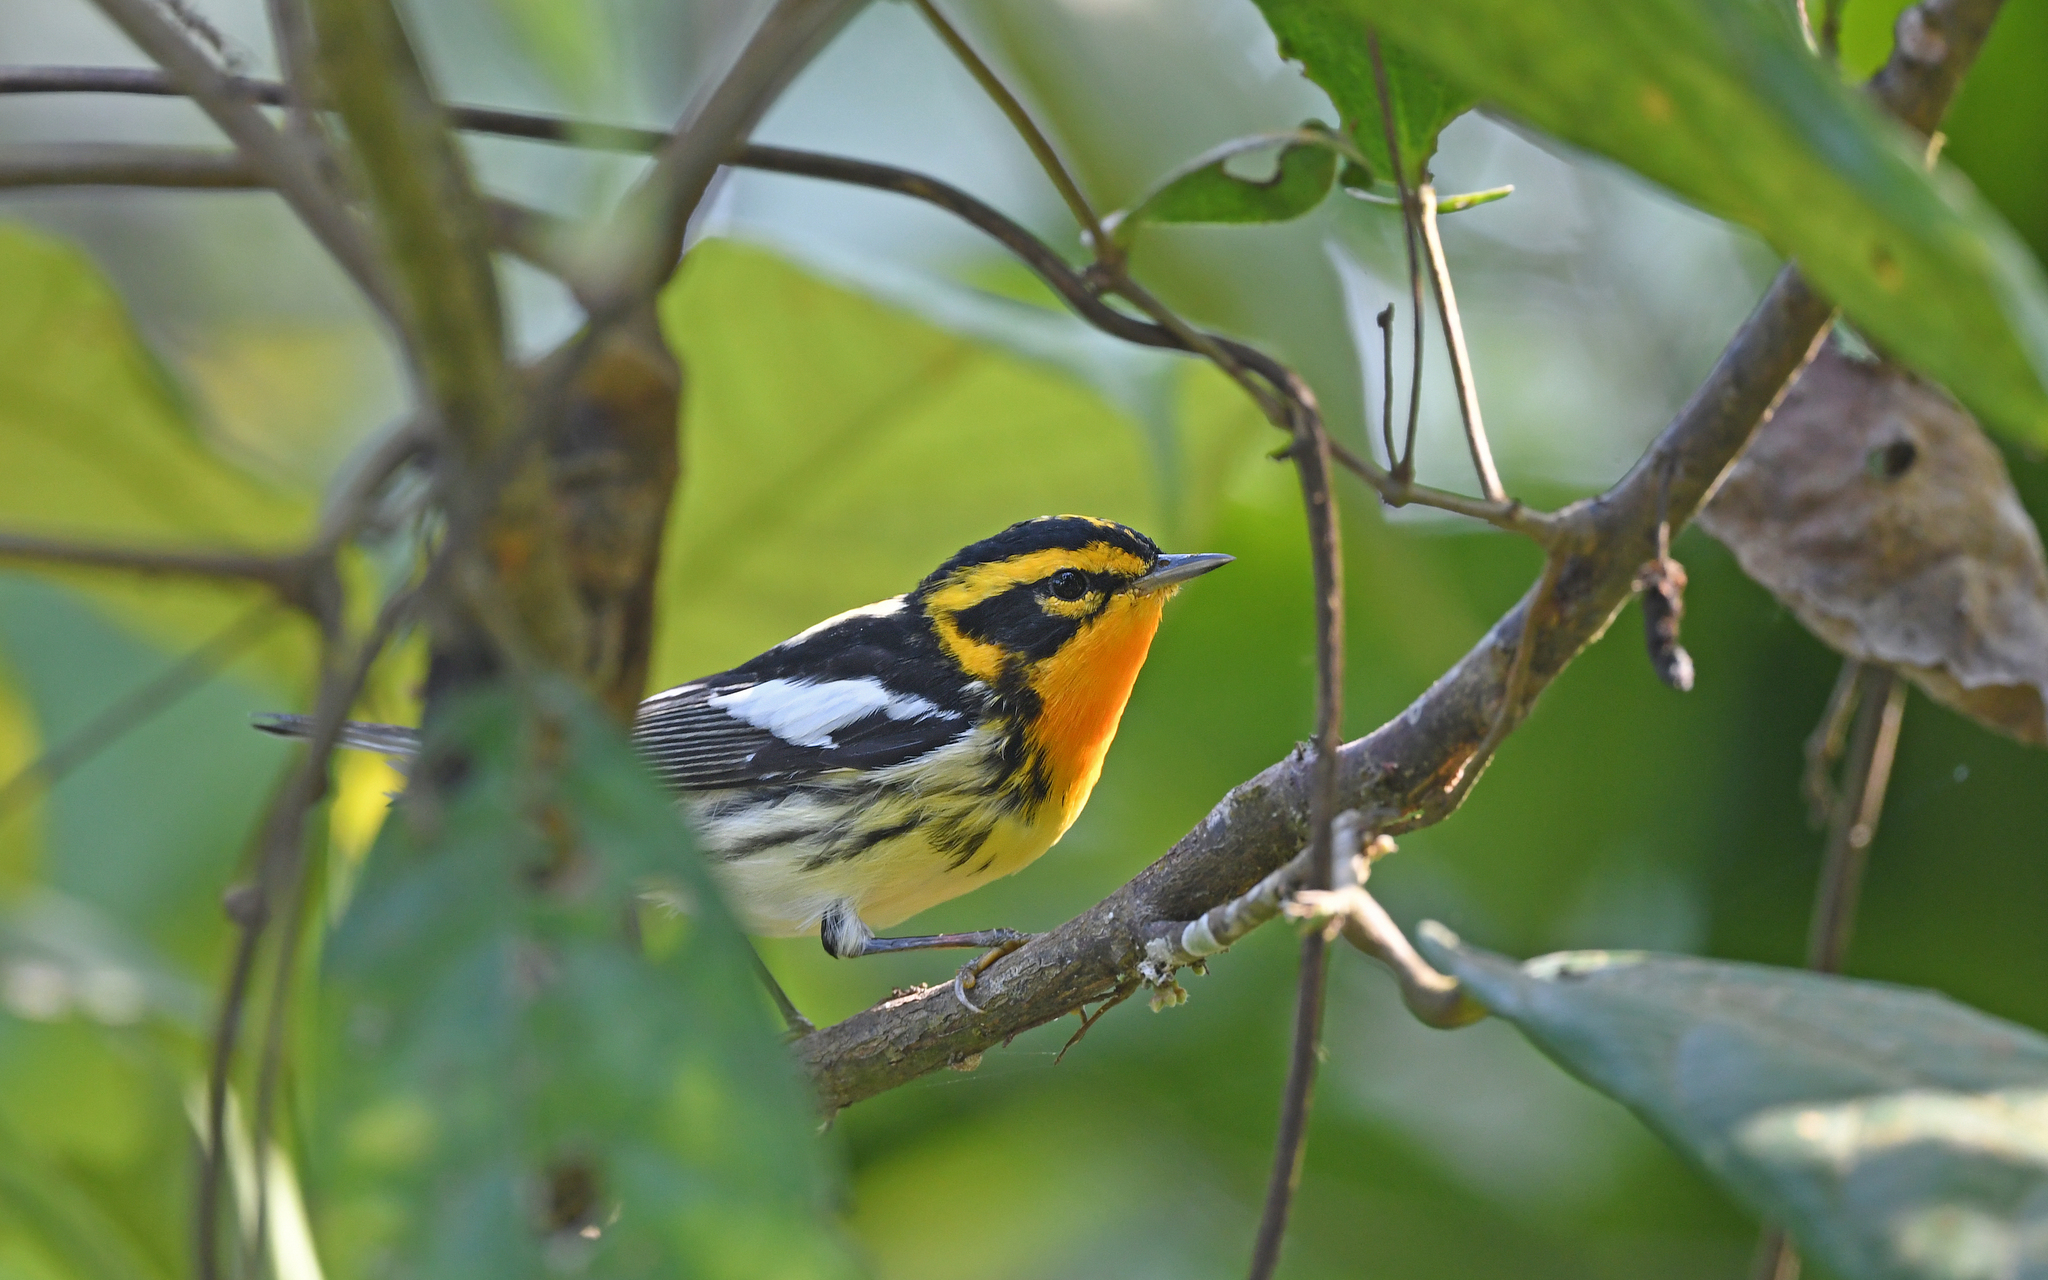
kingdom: Animalia
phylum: Chordata
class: Aves
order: Passeriformes
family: Parulidae
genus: Setophaga
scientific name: Setophaga fusca
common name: Blackburnian warbler
